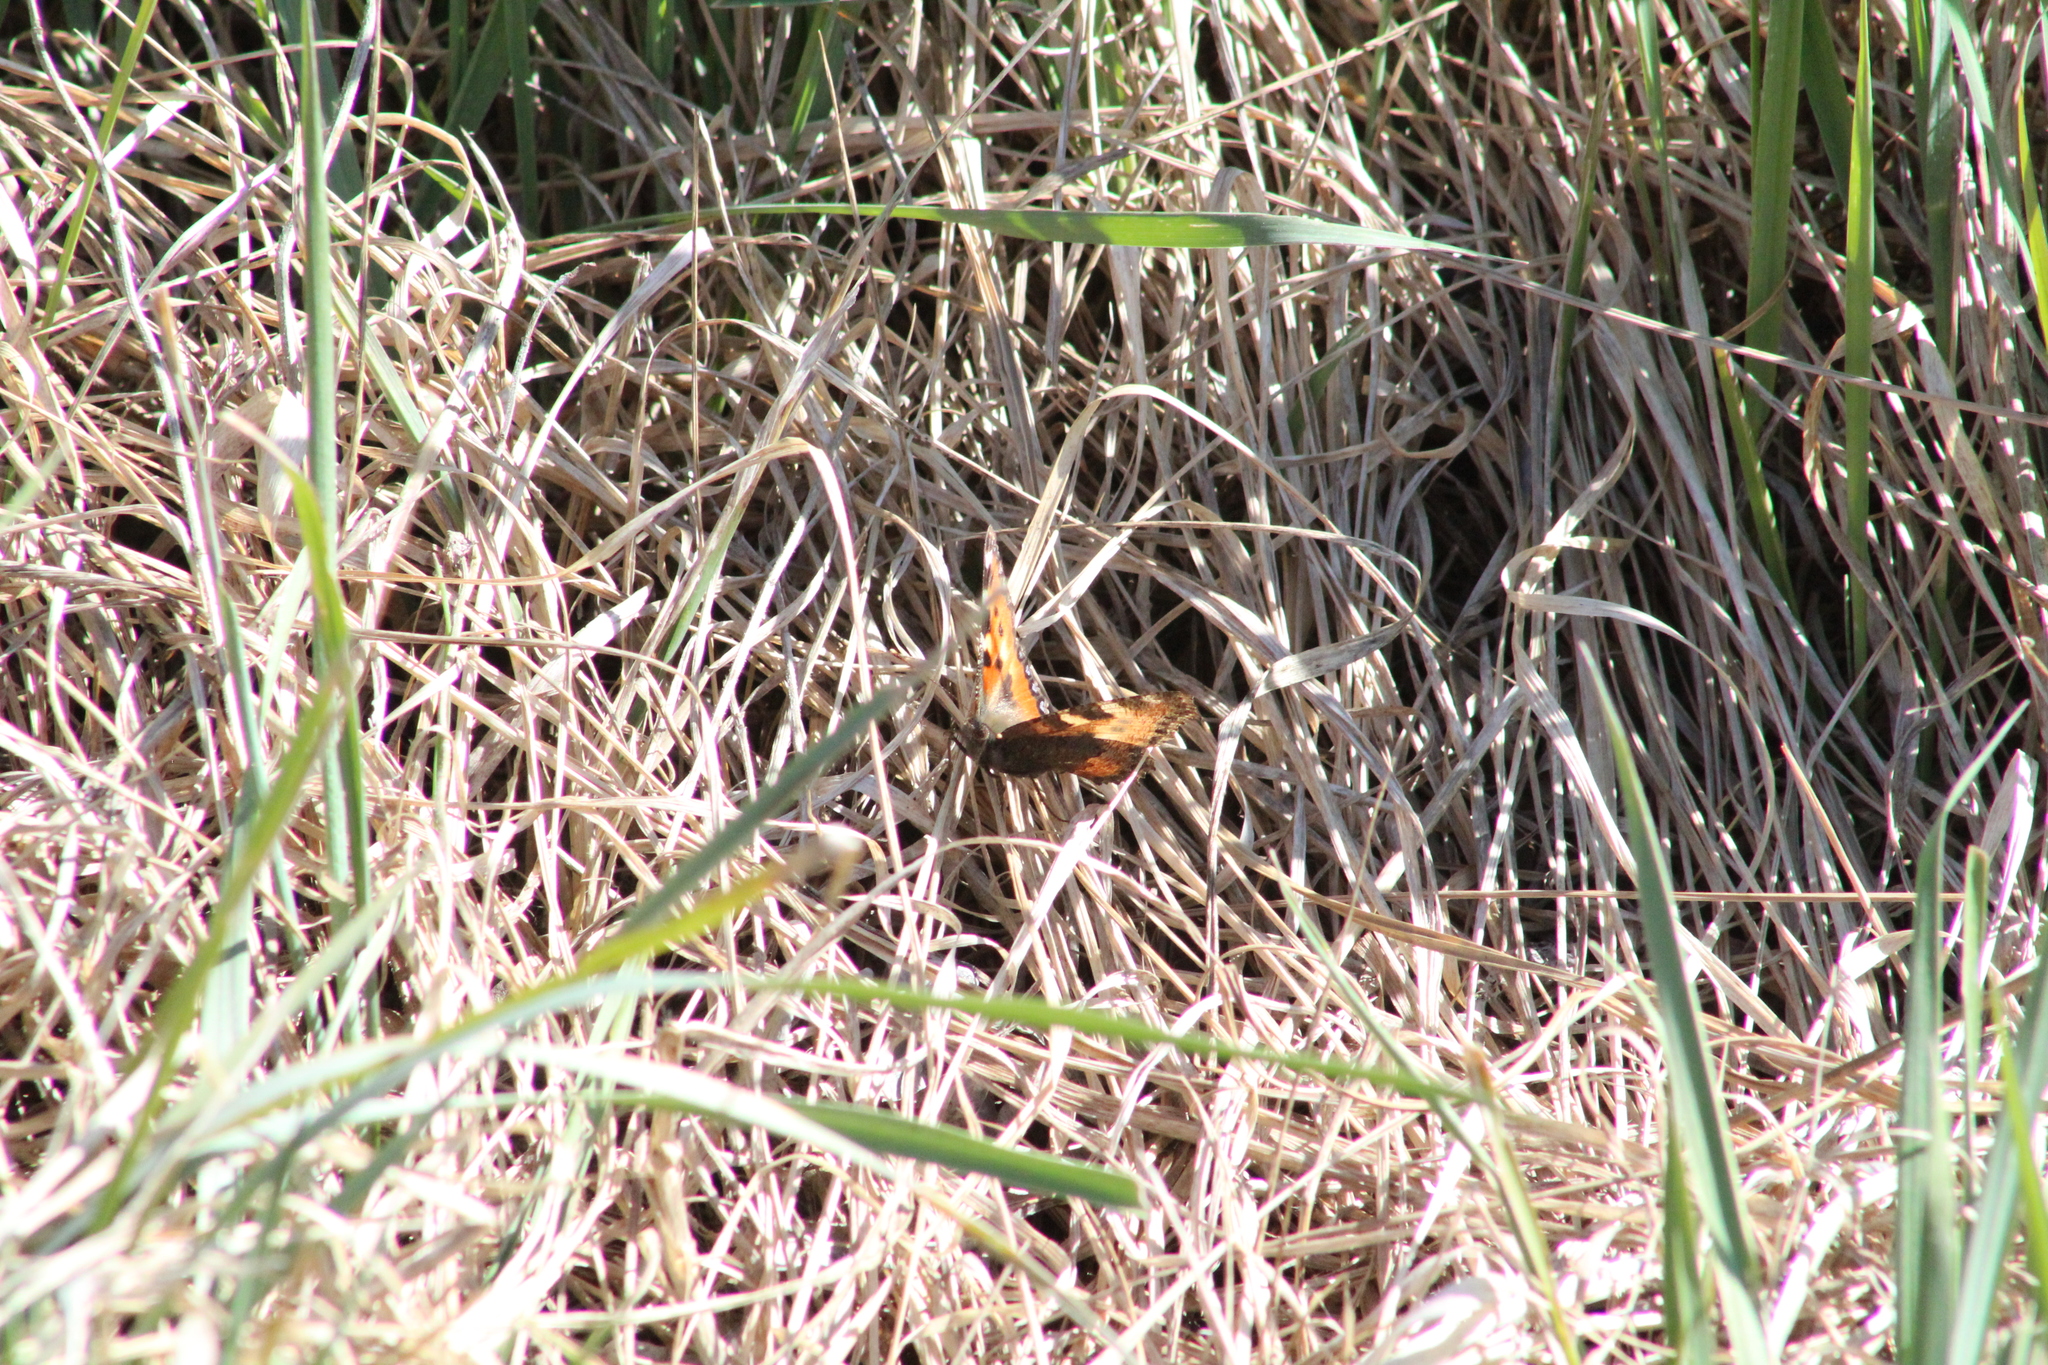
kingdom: Animalia
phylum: Arthropoda
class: Insecta
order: Lepidoptera
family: Nymphalidae
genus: Aglais
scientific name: Aglais urticae
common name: Small tortoiseshell
